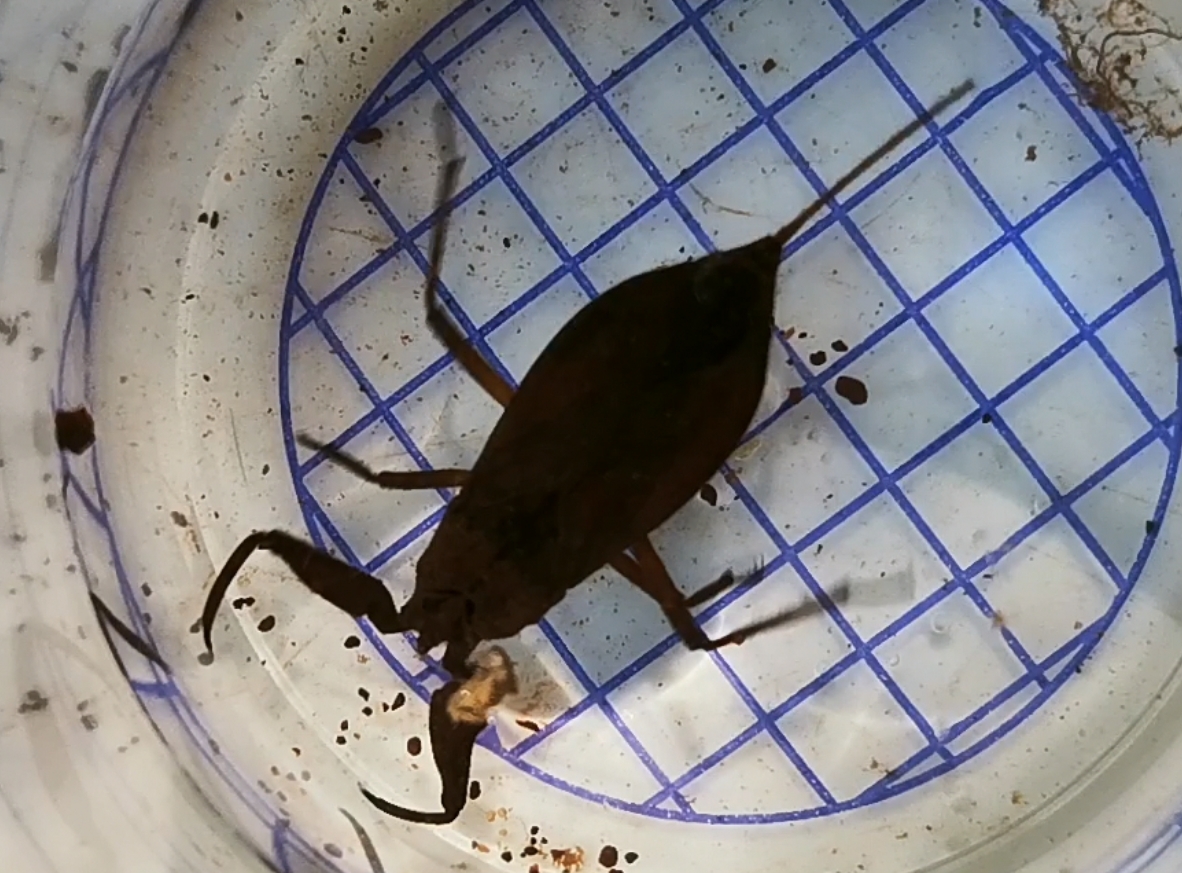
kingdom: Animalia
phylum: Arthropoda
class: Insecta
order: Hemiptera
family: Nepidae
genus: Nepa
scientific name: Nepa cinerea
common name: Water scorpion
